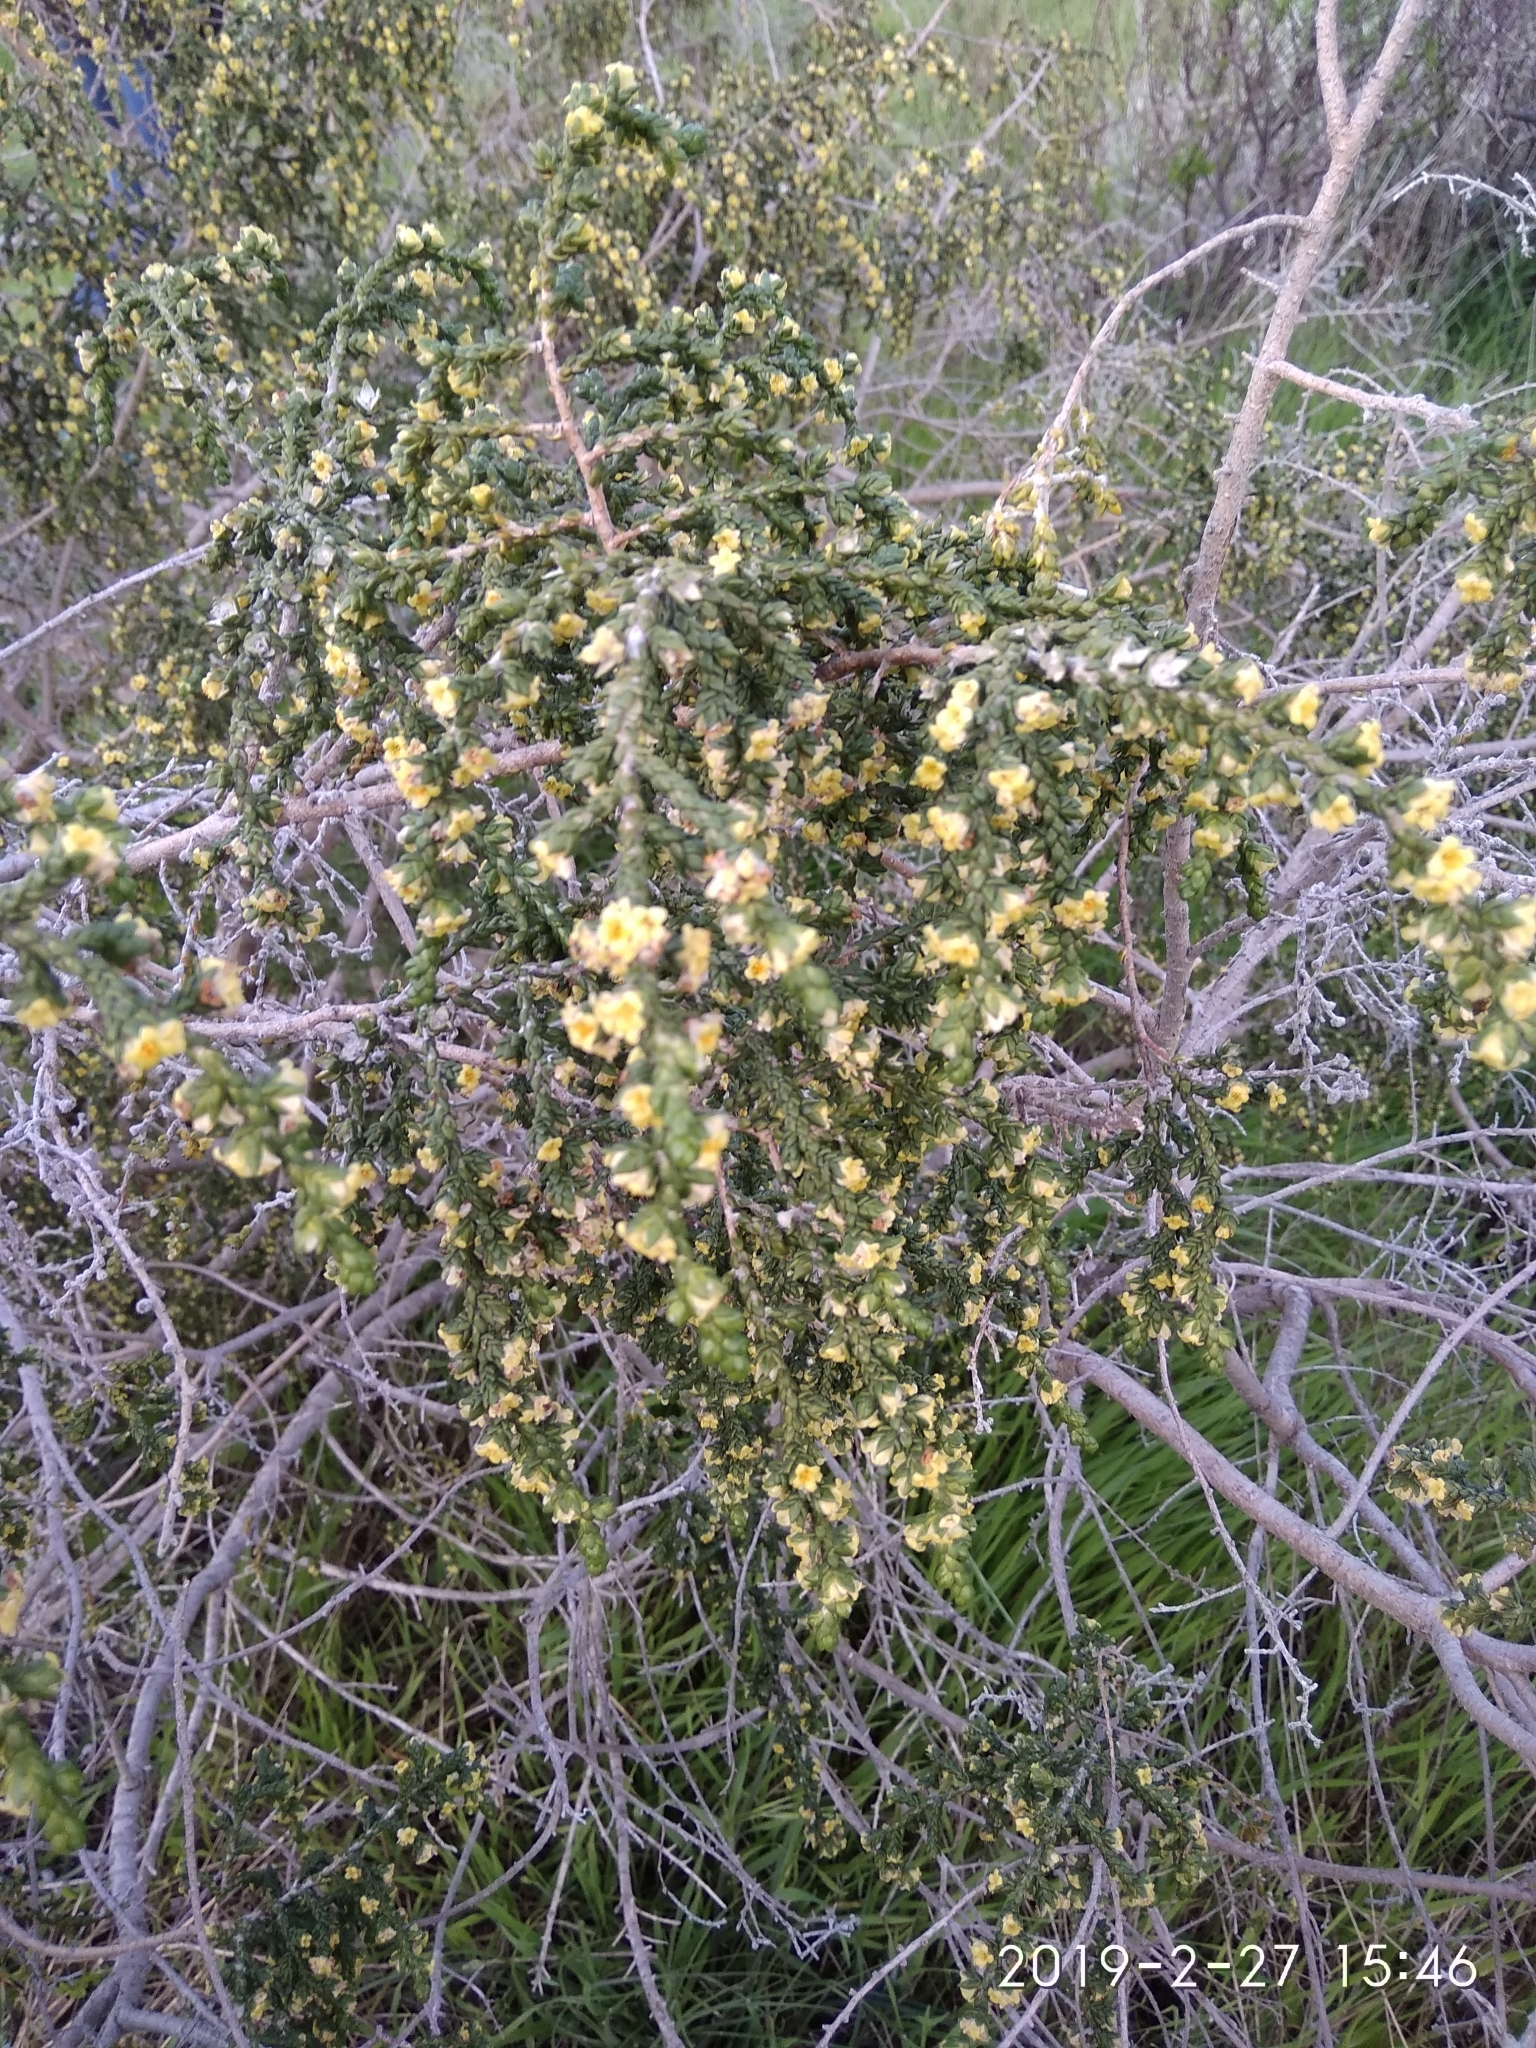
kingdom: Plantae
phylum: Tracheophyta
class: Magnoliopsida
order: Malvales
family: Thymelaeaceae
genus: Thymelaea
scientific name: Thymelaea hirsuta
